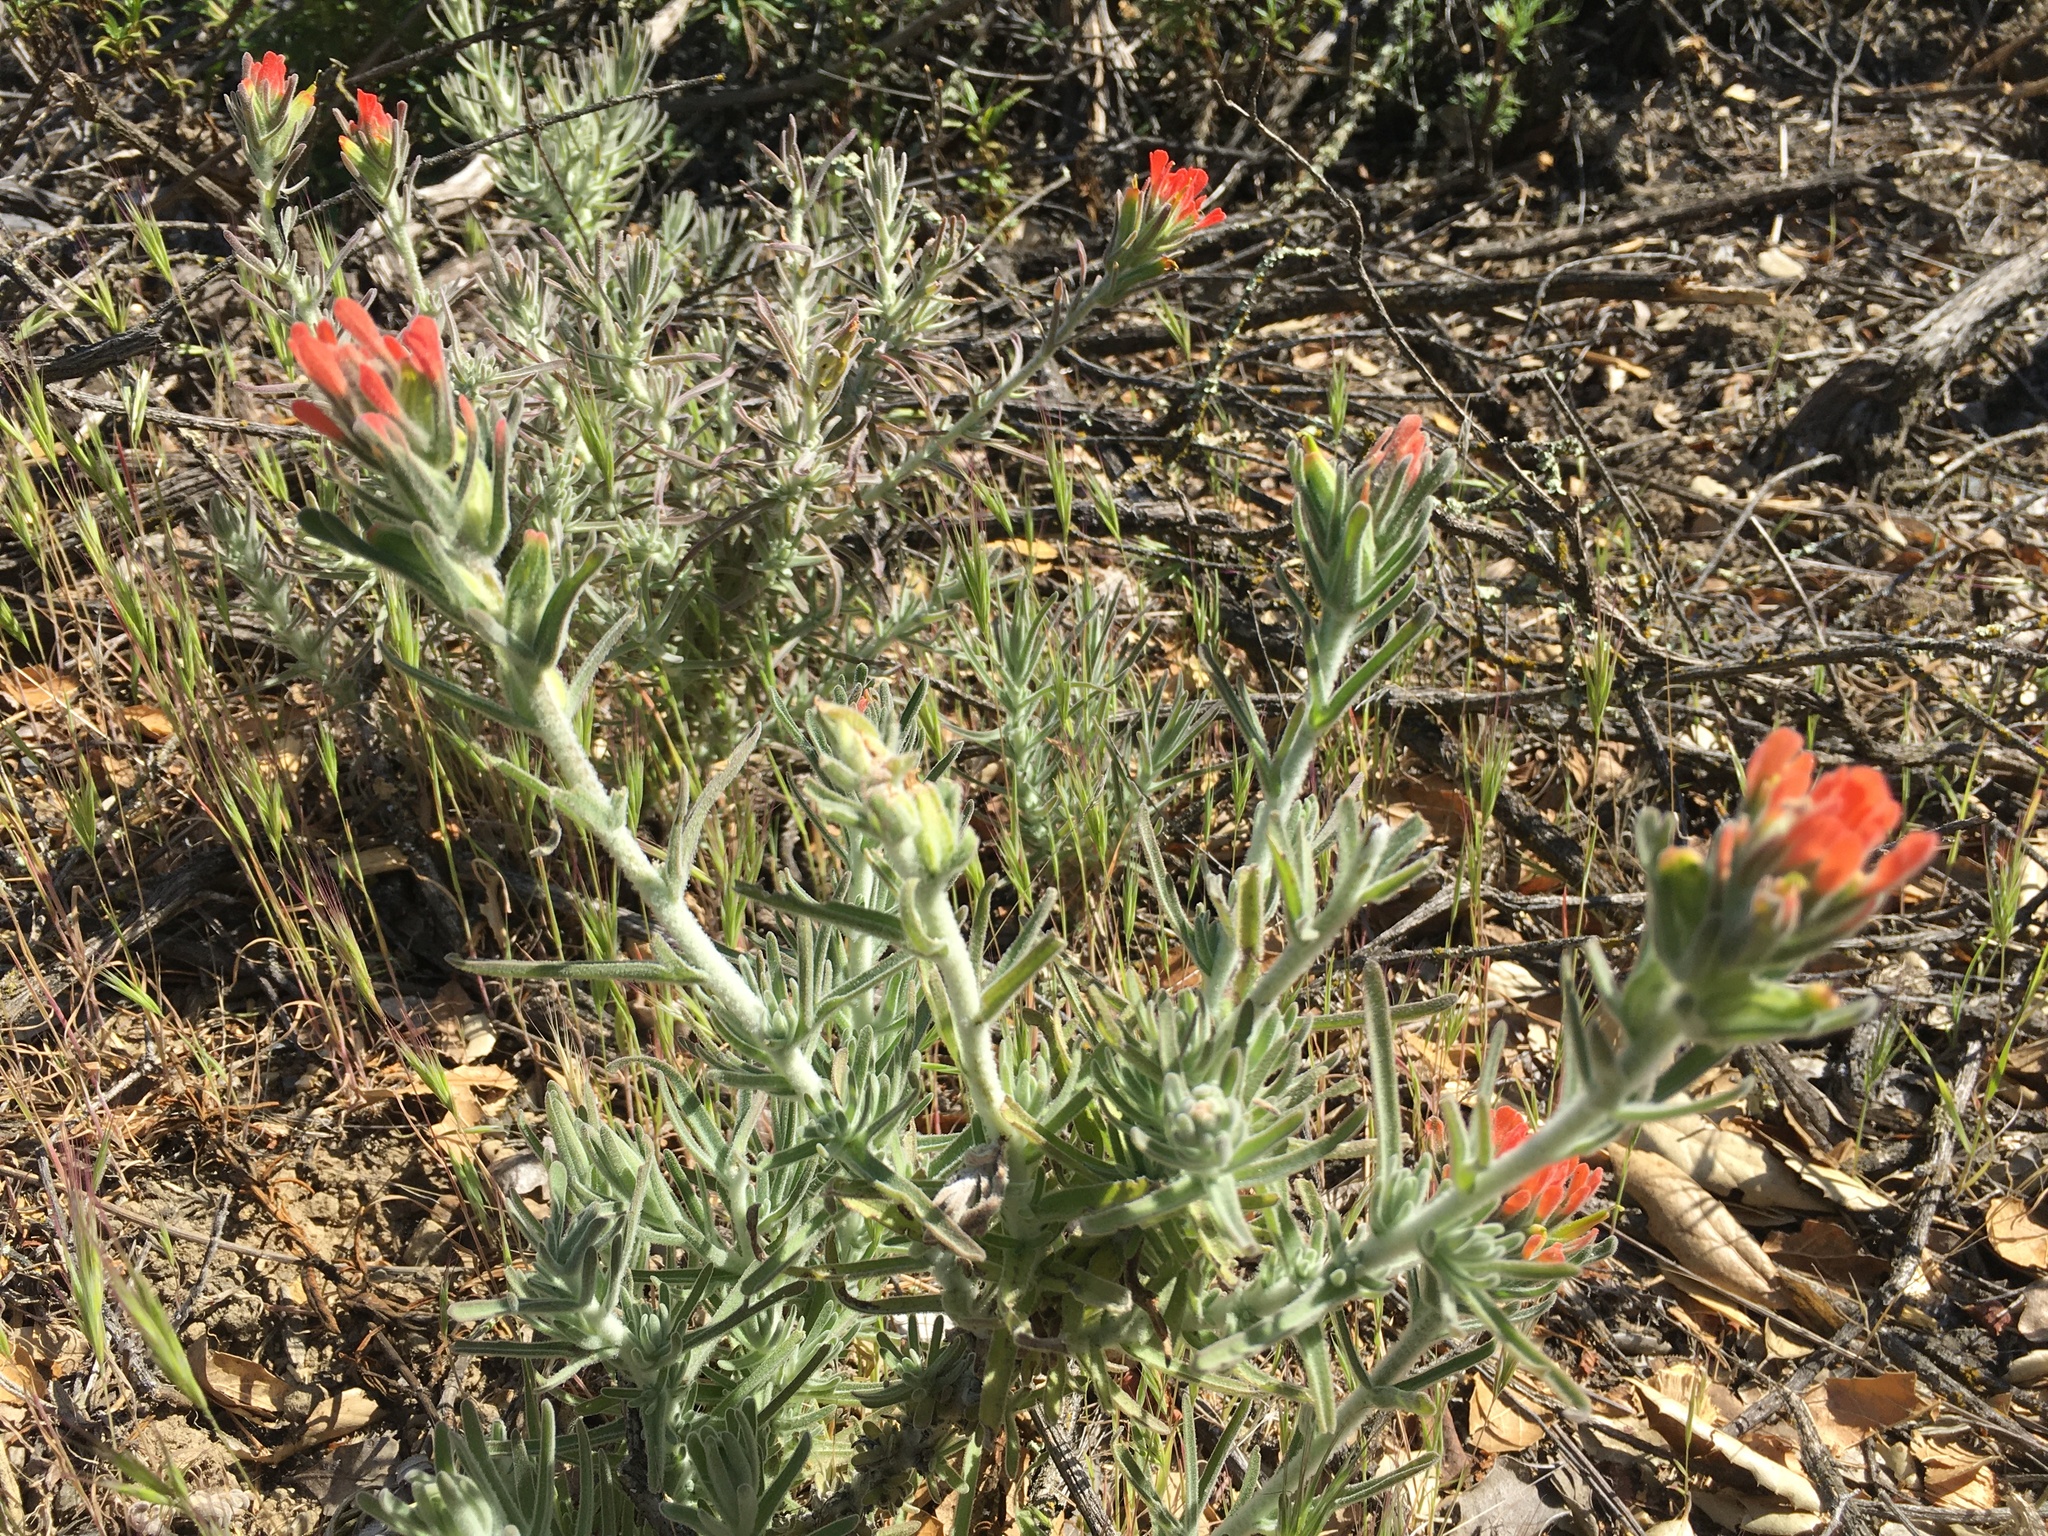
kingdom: Plantae
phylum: Tracheophyta
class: Magnoliopsida
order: Lamiales
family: Orobanchaceae
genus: Castilleja
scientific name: Castilleja foliolosa
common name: Woolly indian paintbrush
